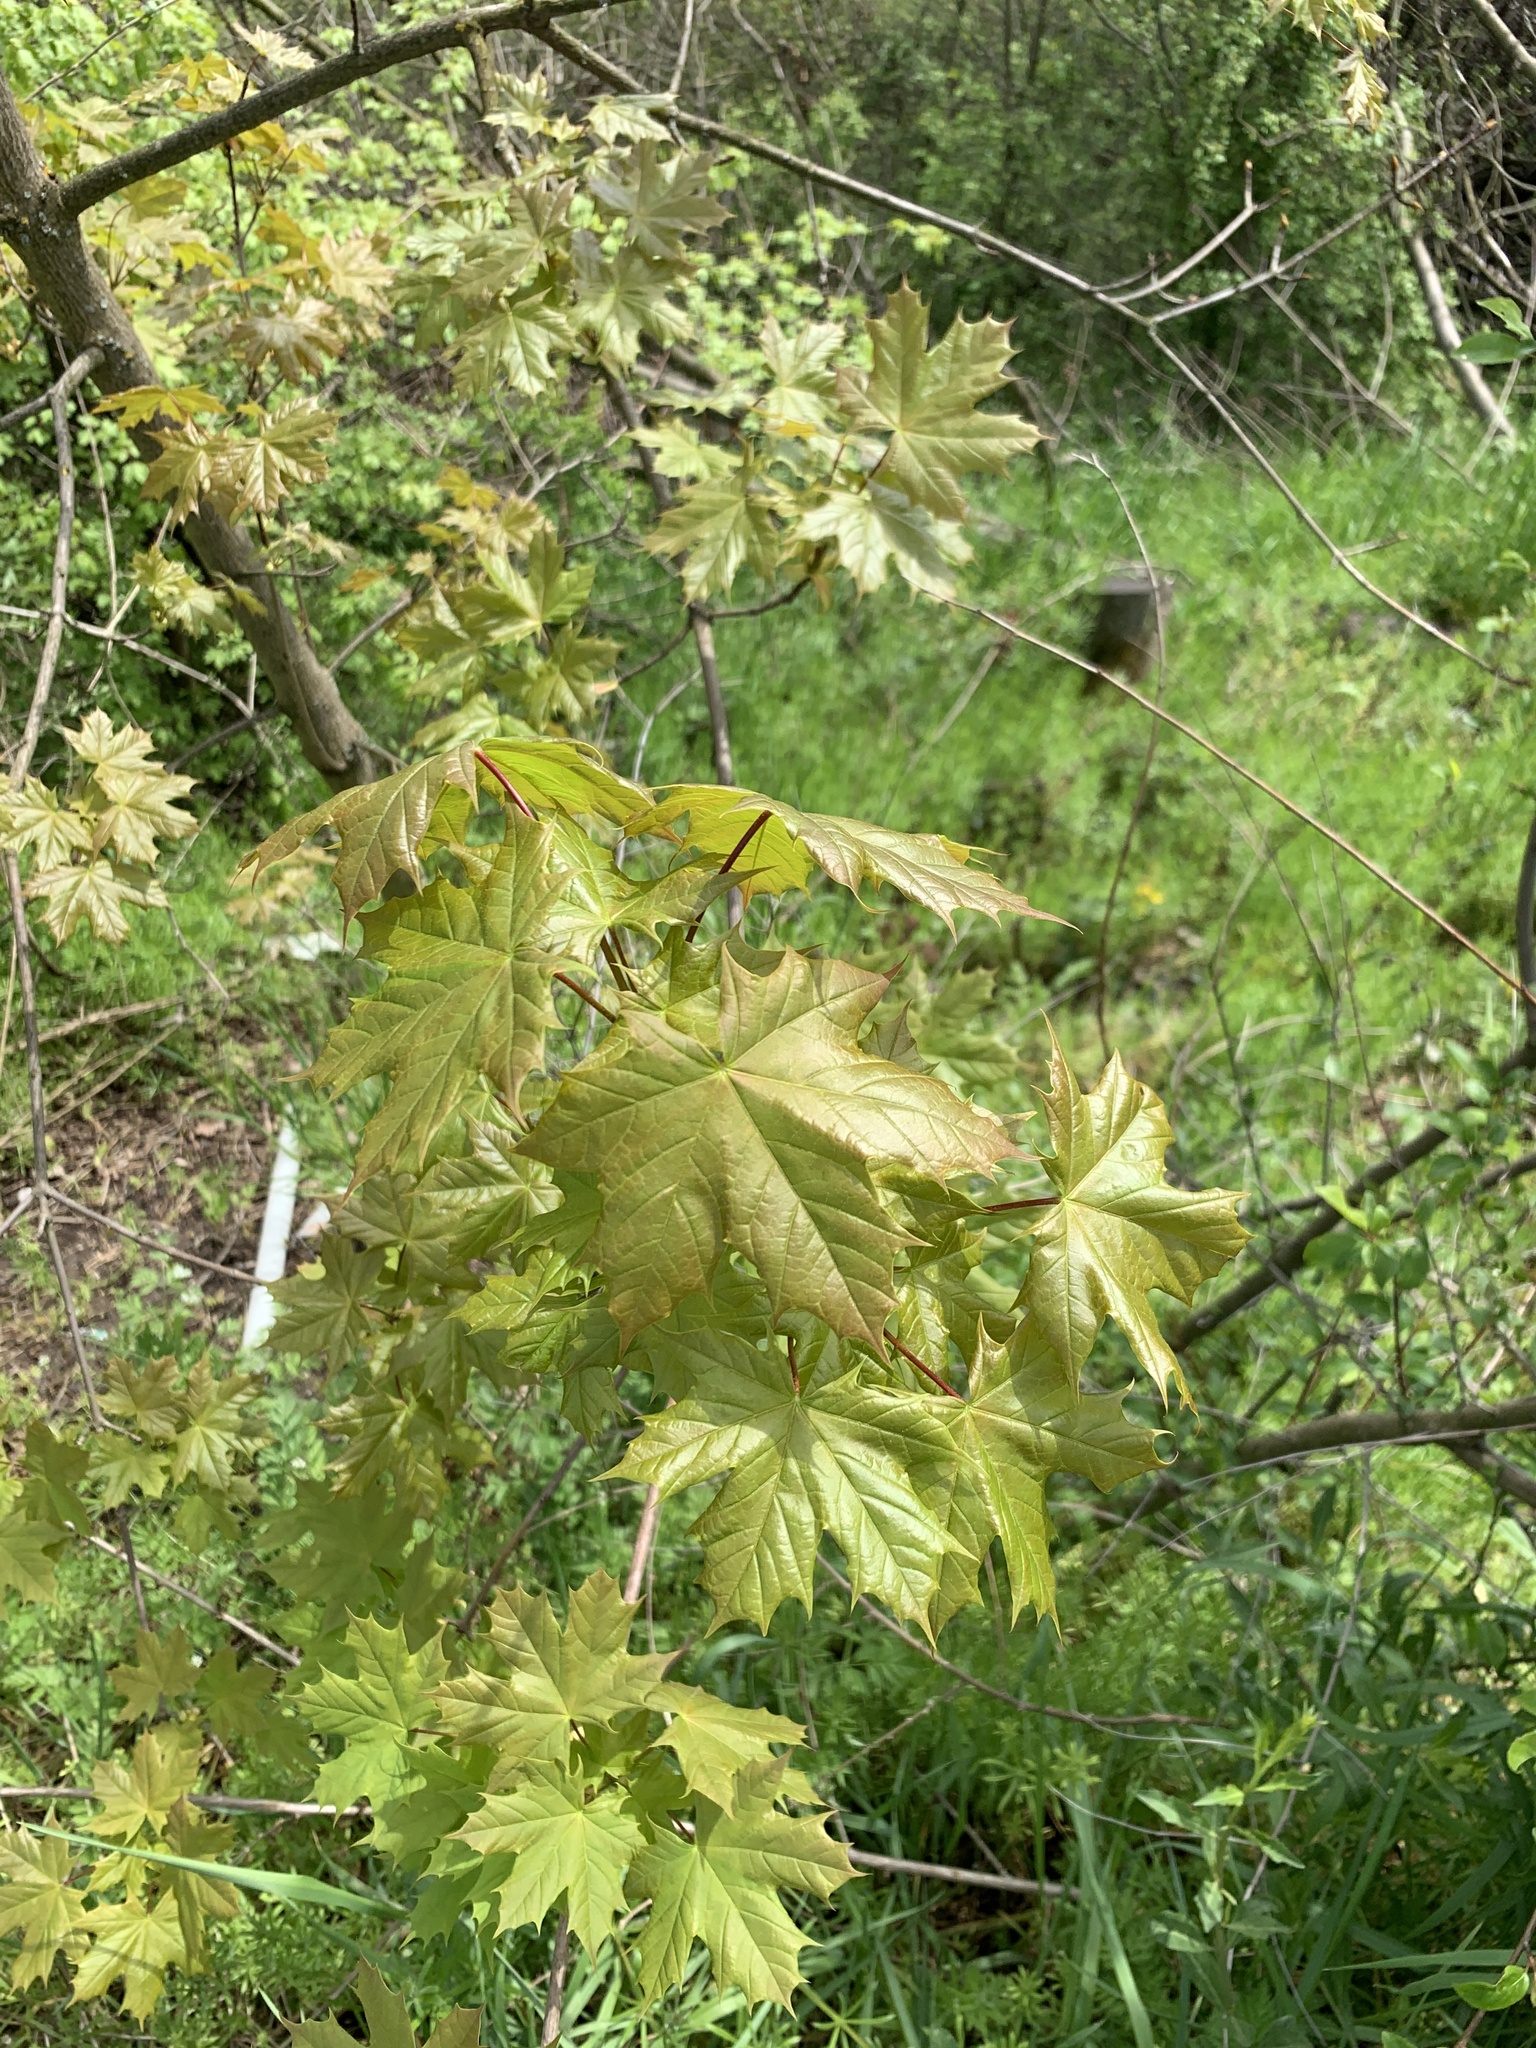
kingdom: Plantae
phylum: Tracheophyta
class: Magnoliopsida
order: Sapindales
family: Sapindaceae
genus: Acer
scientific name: Acer platanoides
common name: Norway maple
